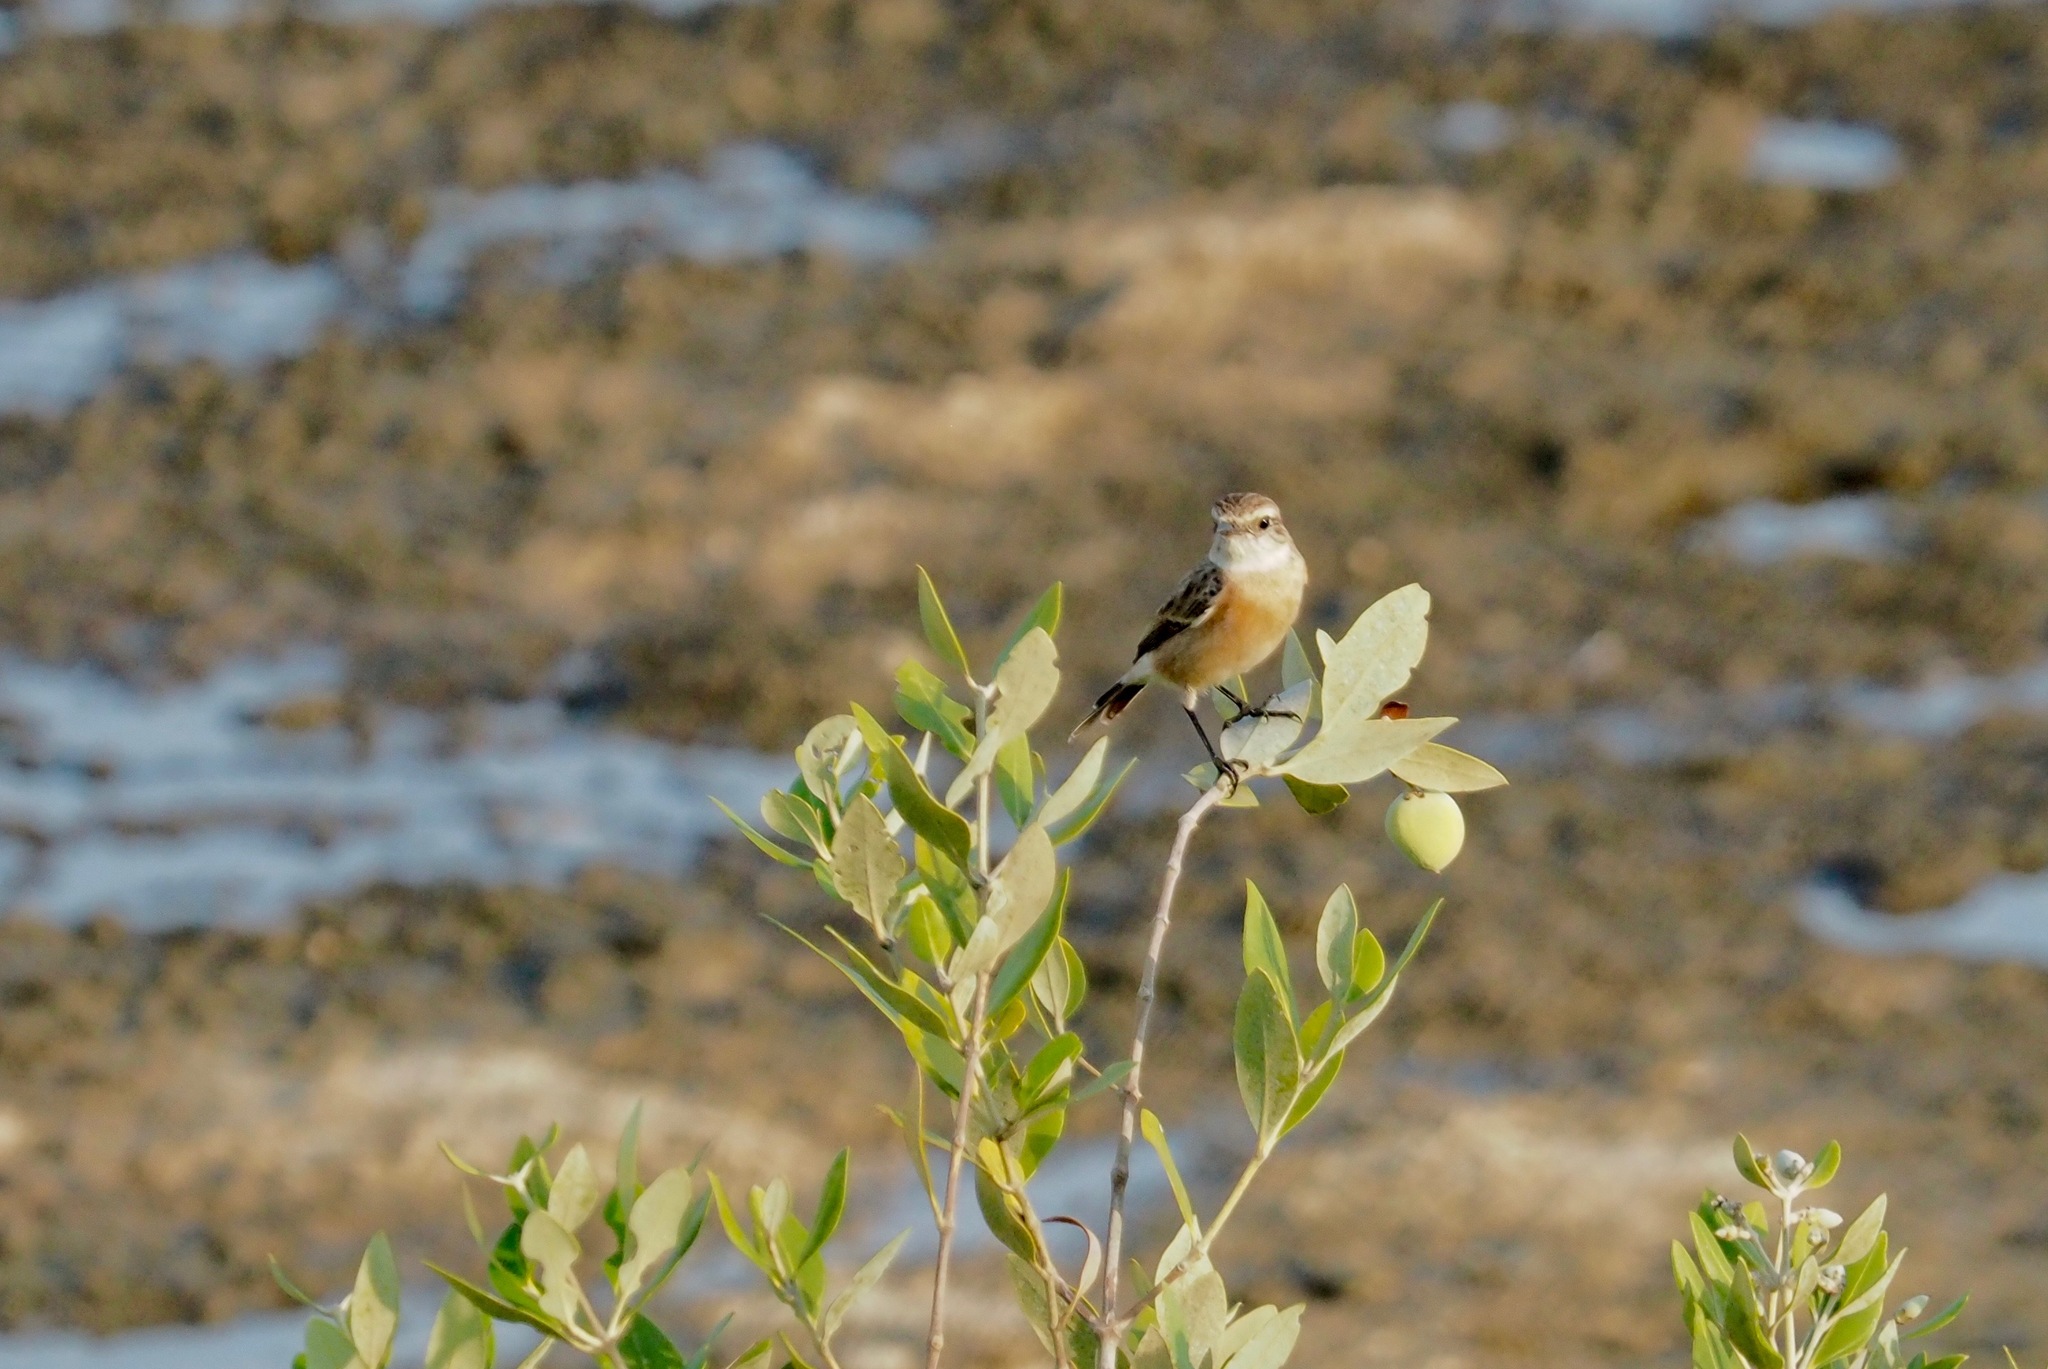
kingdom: Animalia
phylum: Chordata
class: Aves
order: Passeriformes
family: Muscicapidae
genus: Saxicola
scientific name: Saxicola maurus
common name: Siberian stonechat
